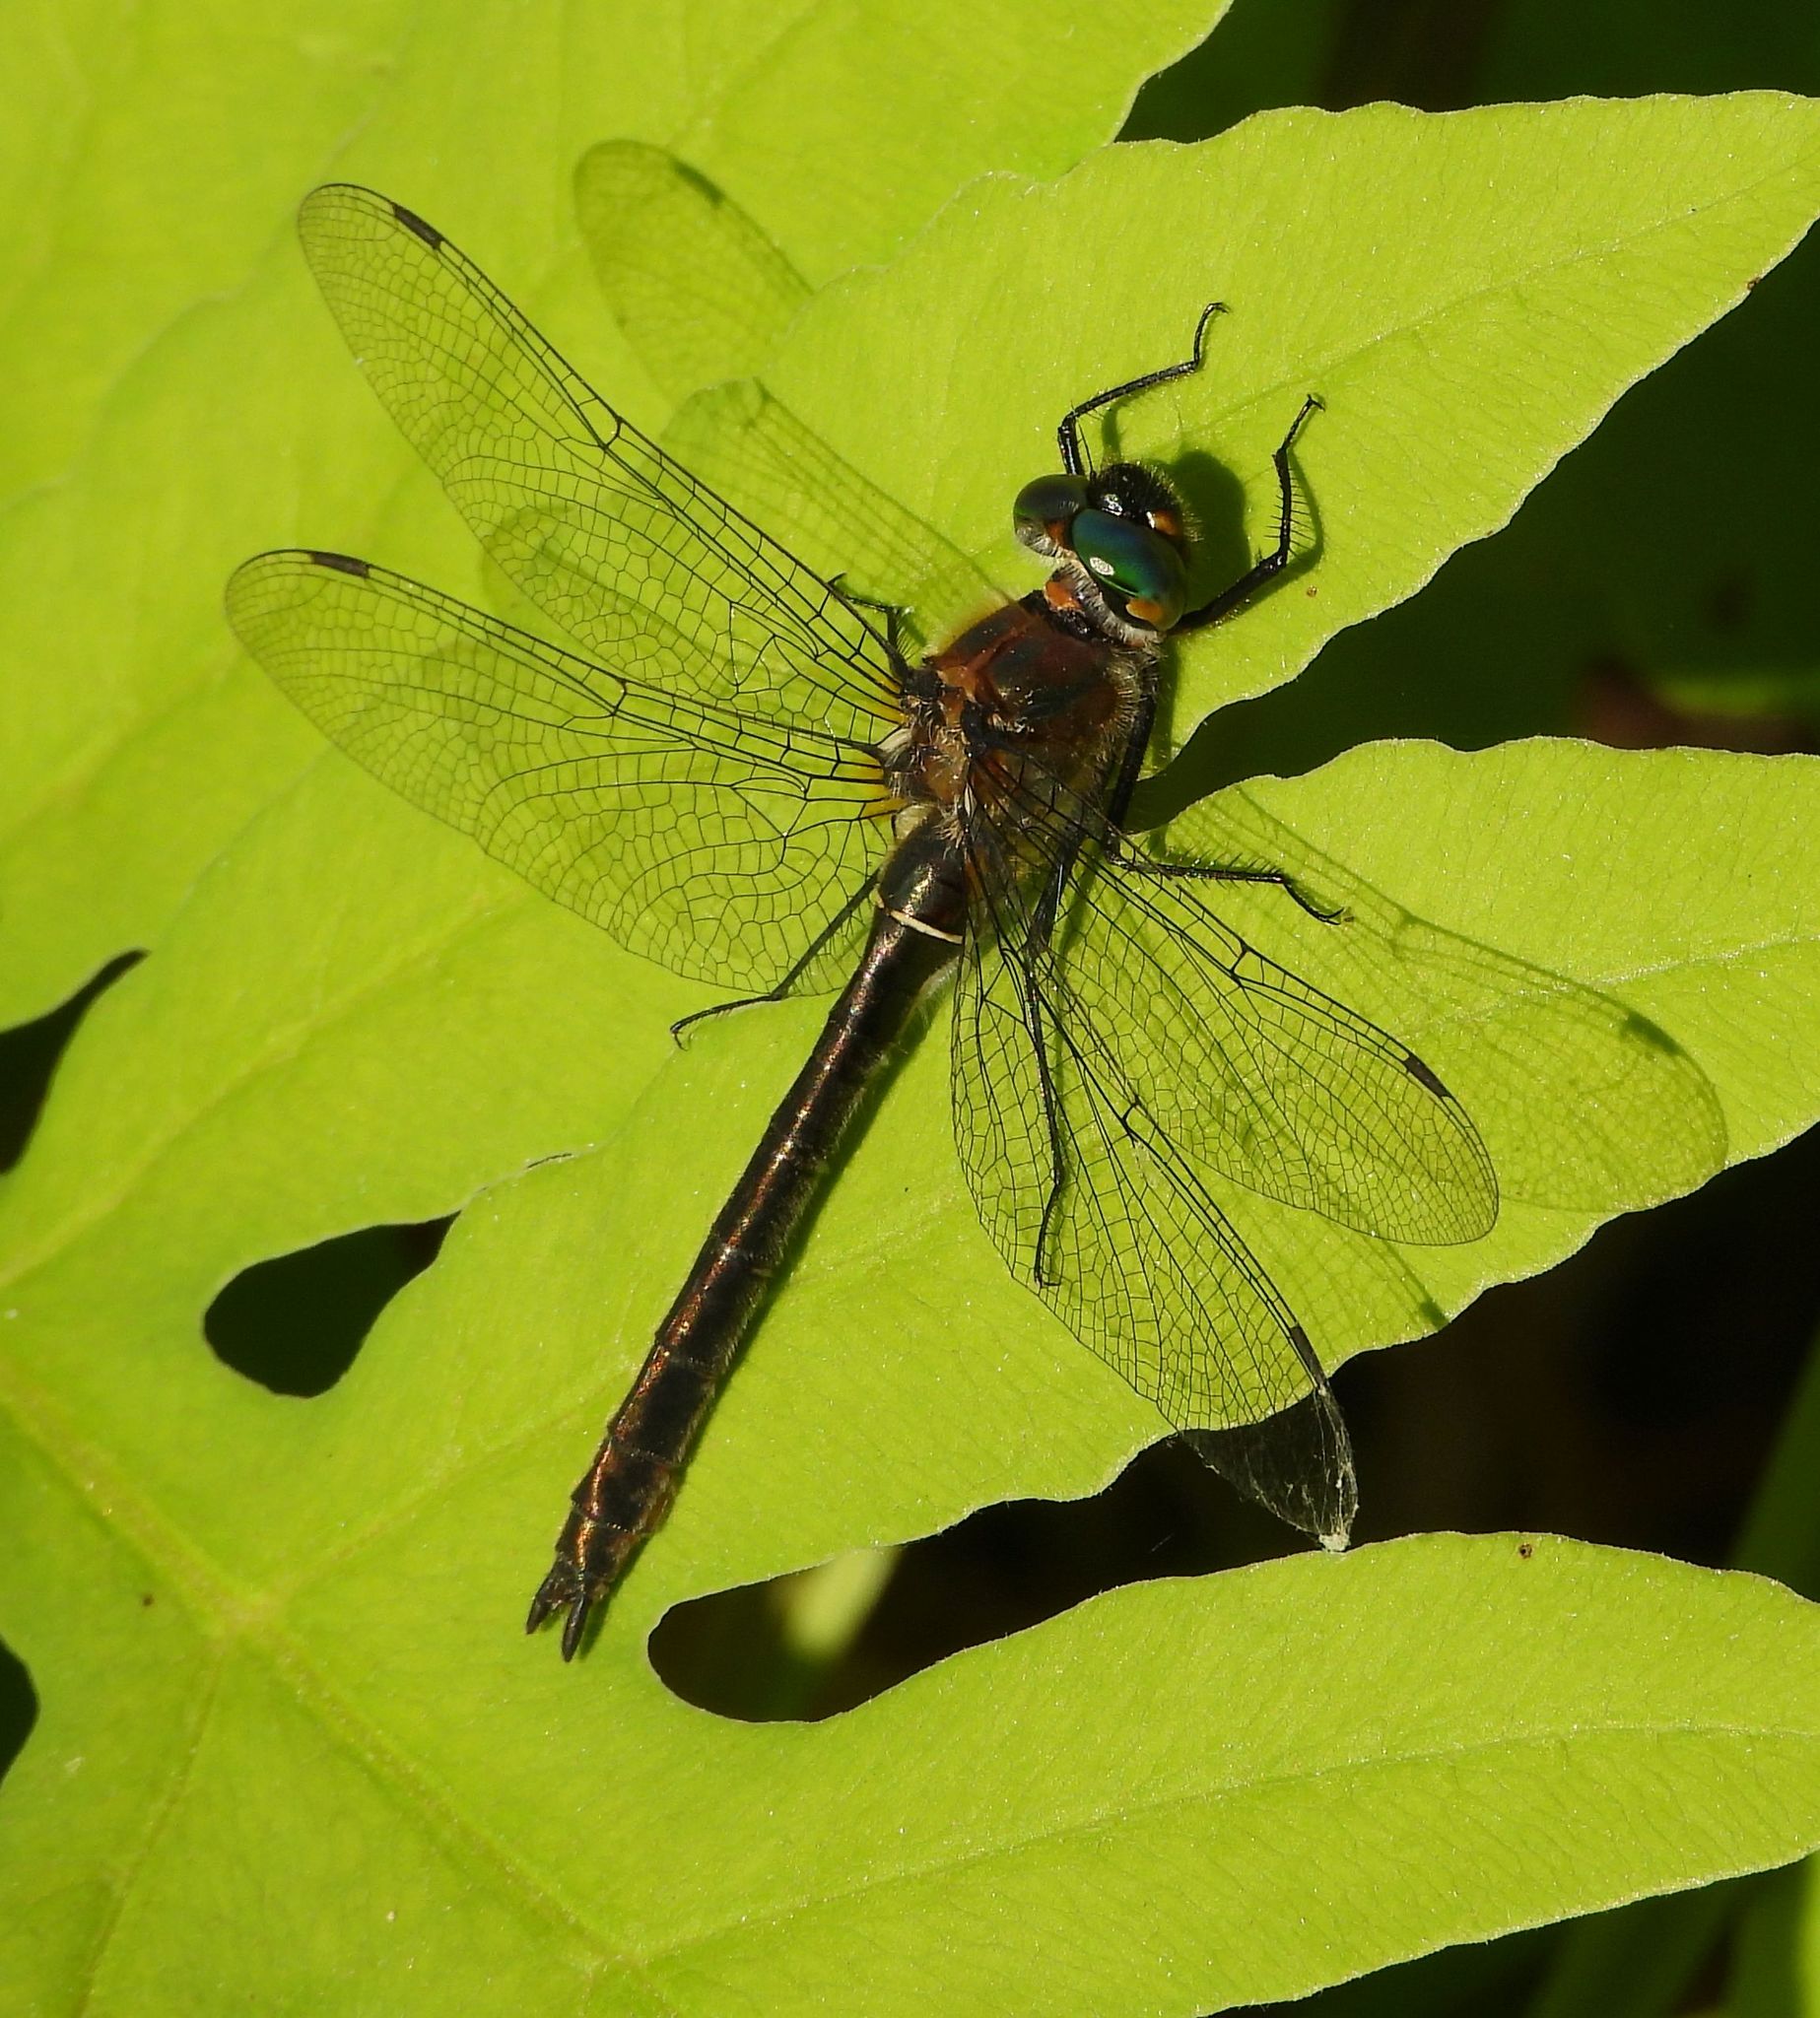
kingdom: Animalia
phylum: Arthropoda
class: Insecta
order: Odonata
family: Corduliidae
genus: Cordulia
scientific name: Cordulia shurtleffii
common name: American emerald
